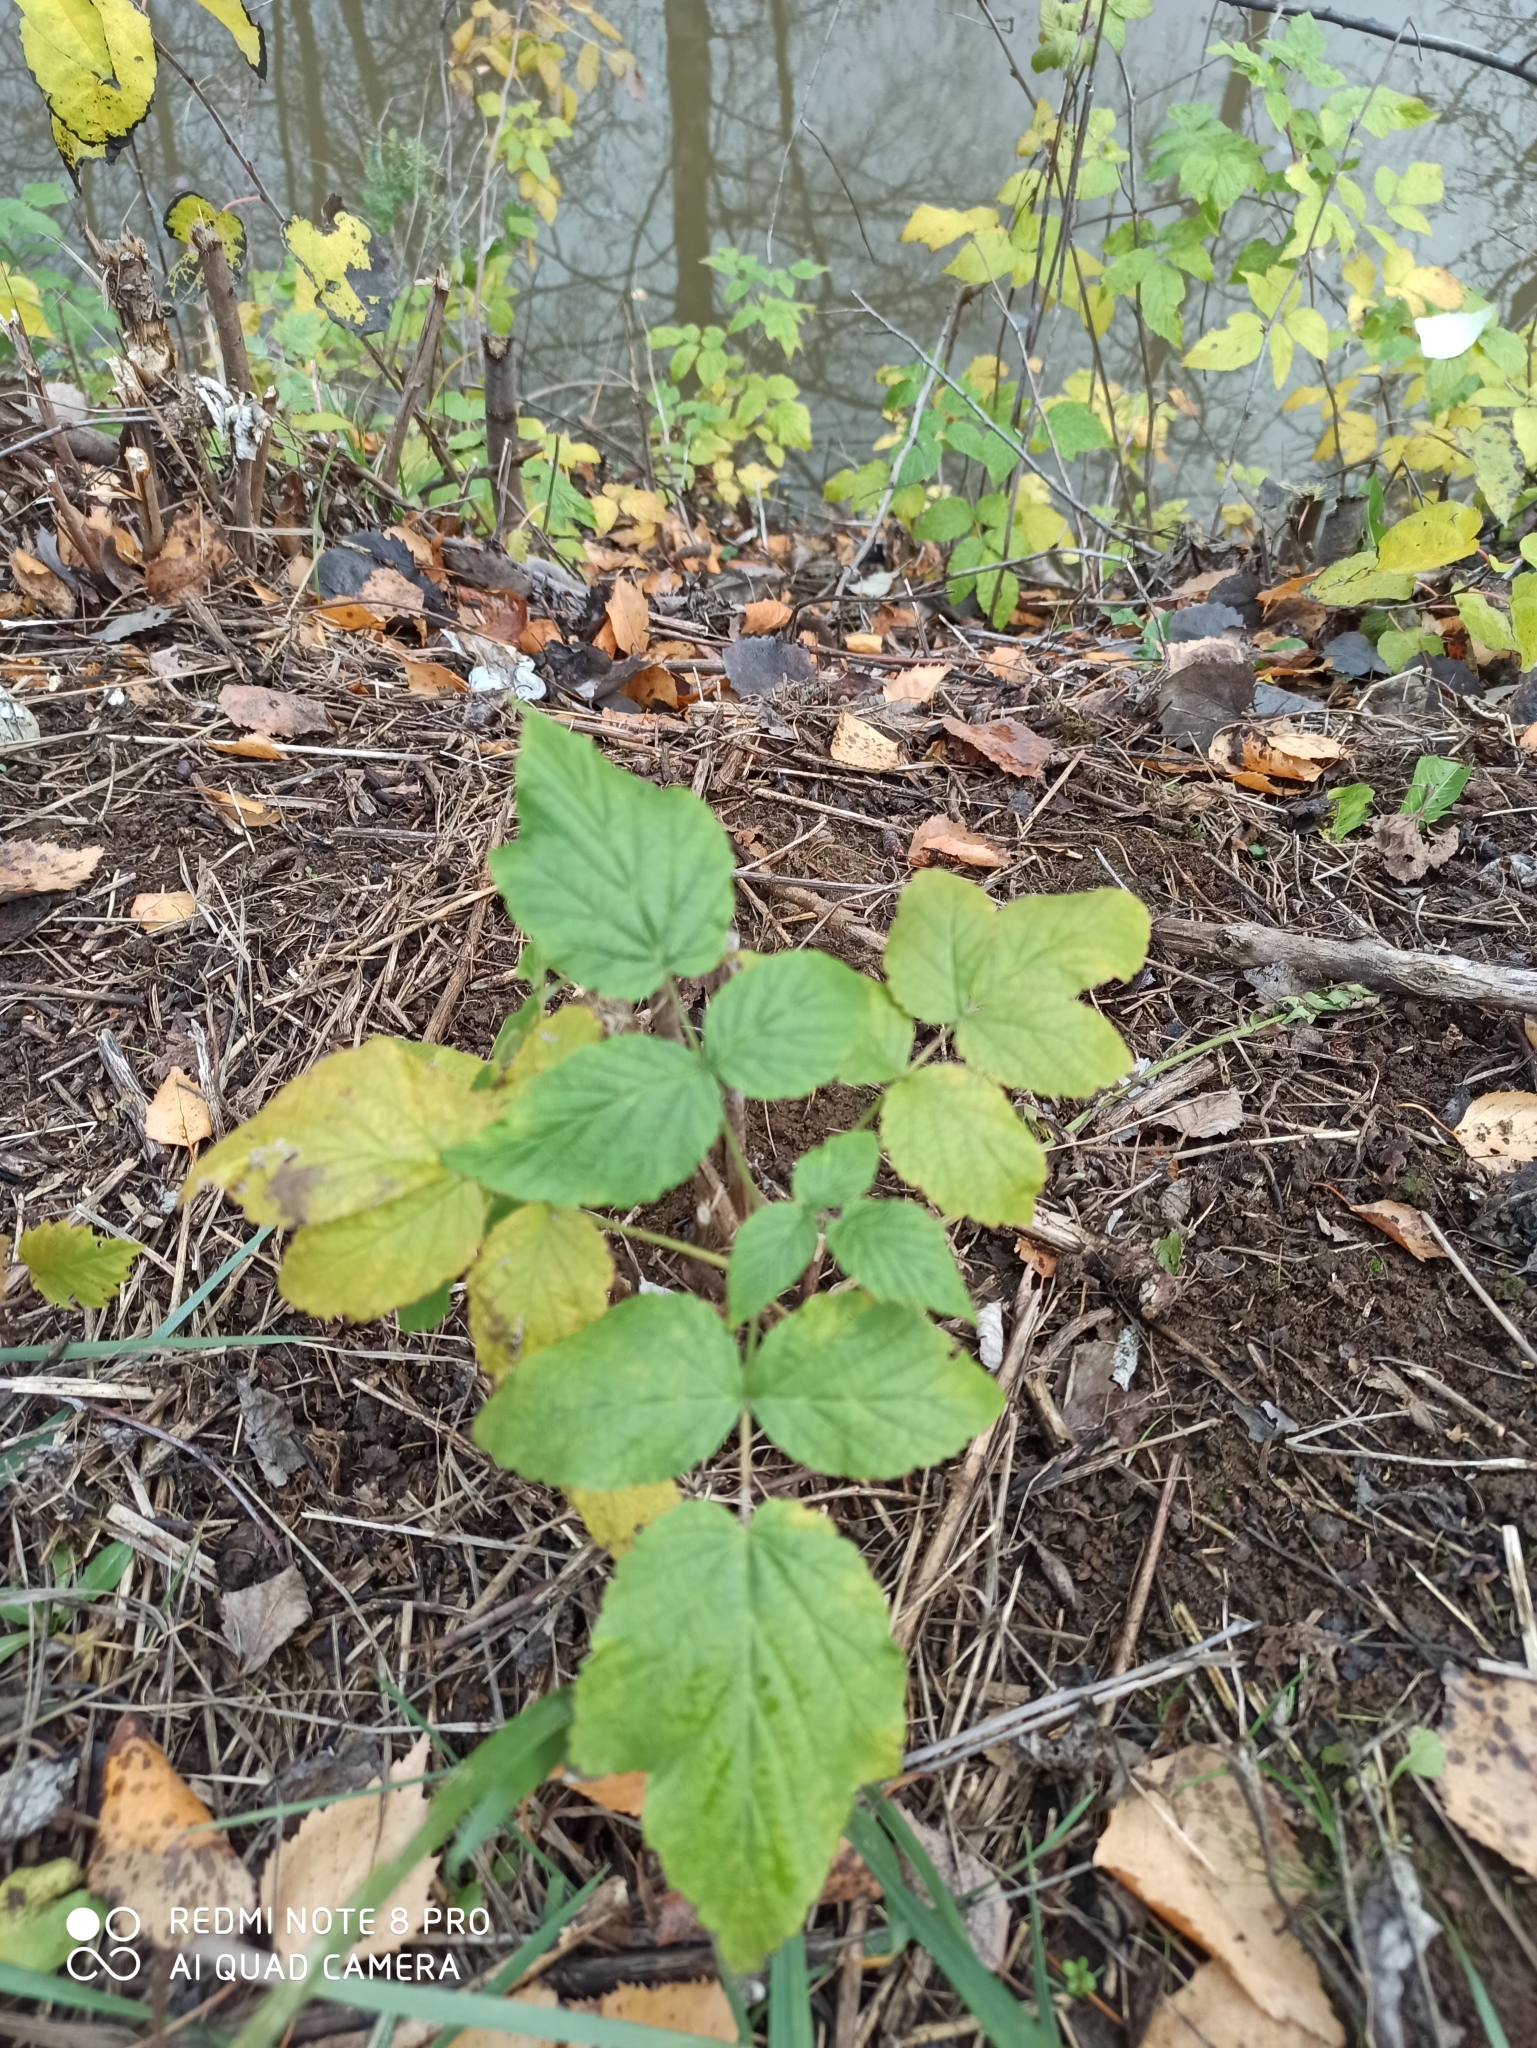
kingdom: Plantae
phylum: Tracheophyta
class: Magnoliopsida
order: Rosales
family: Rosaceae
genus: Rubus
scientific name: Rubus idaeus
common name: Raspberry
